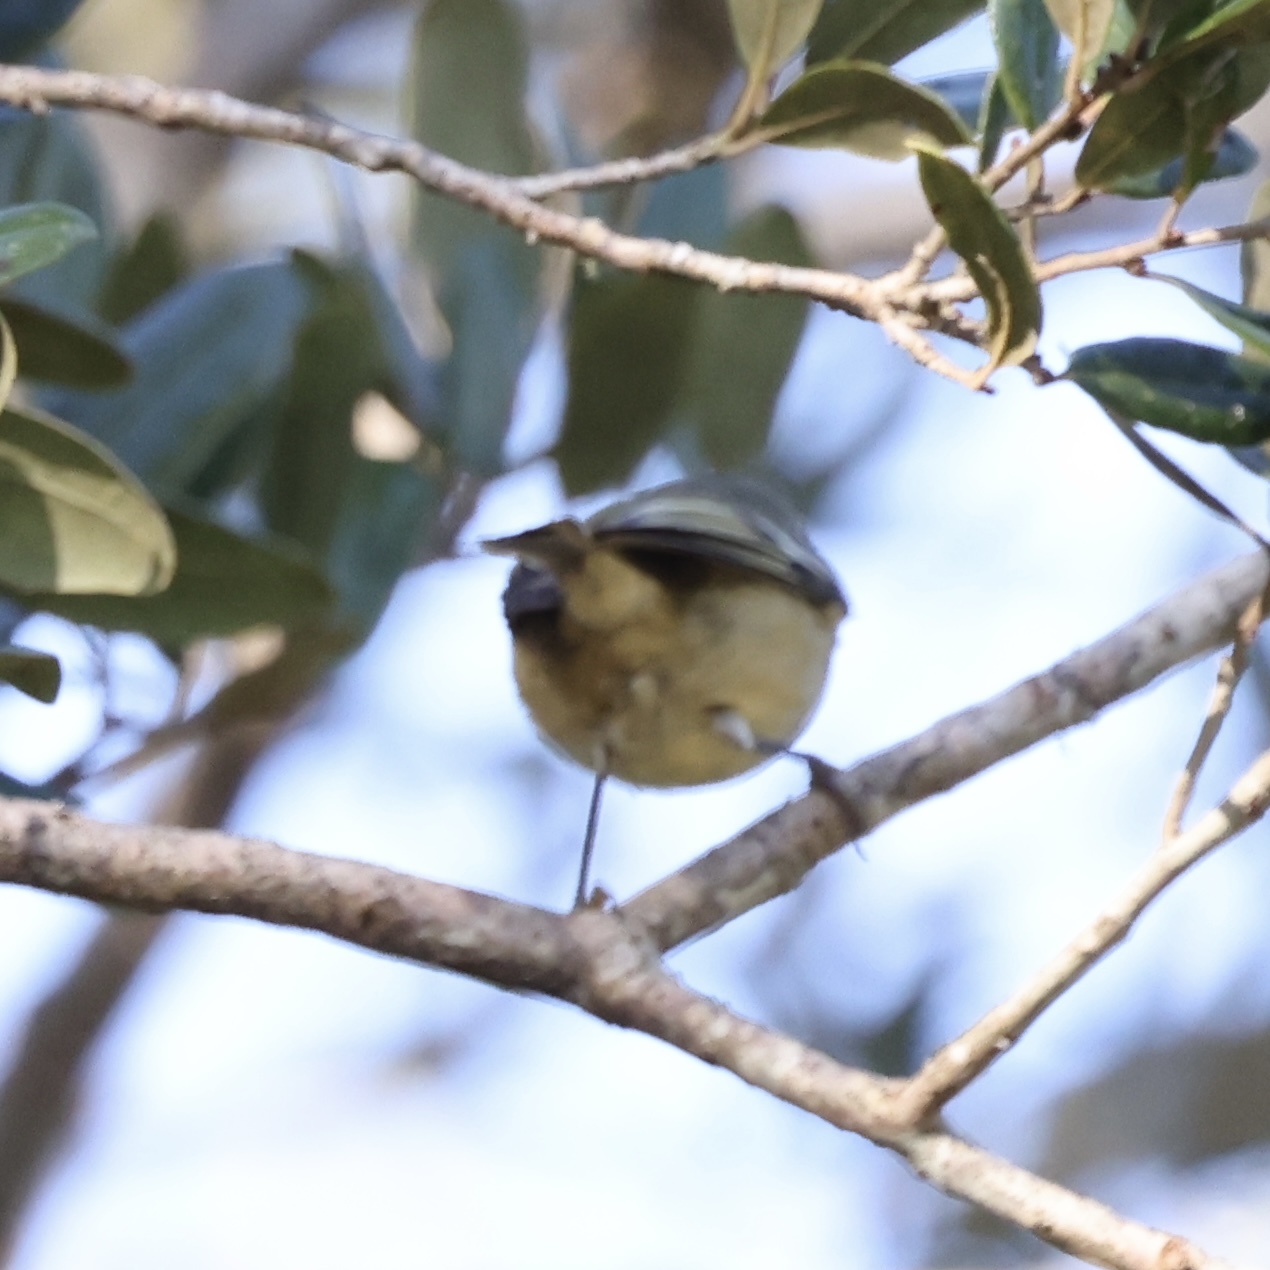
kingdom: Animalia
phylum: Chordata
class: Aves
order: Passeriformes
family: Regulidae
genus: Regulus
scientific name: Regulus calendula
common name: Ruby-crowned kinglet
